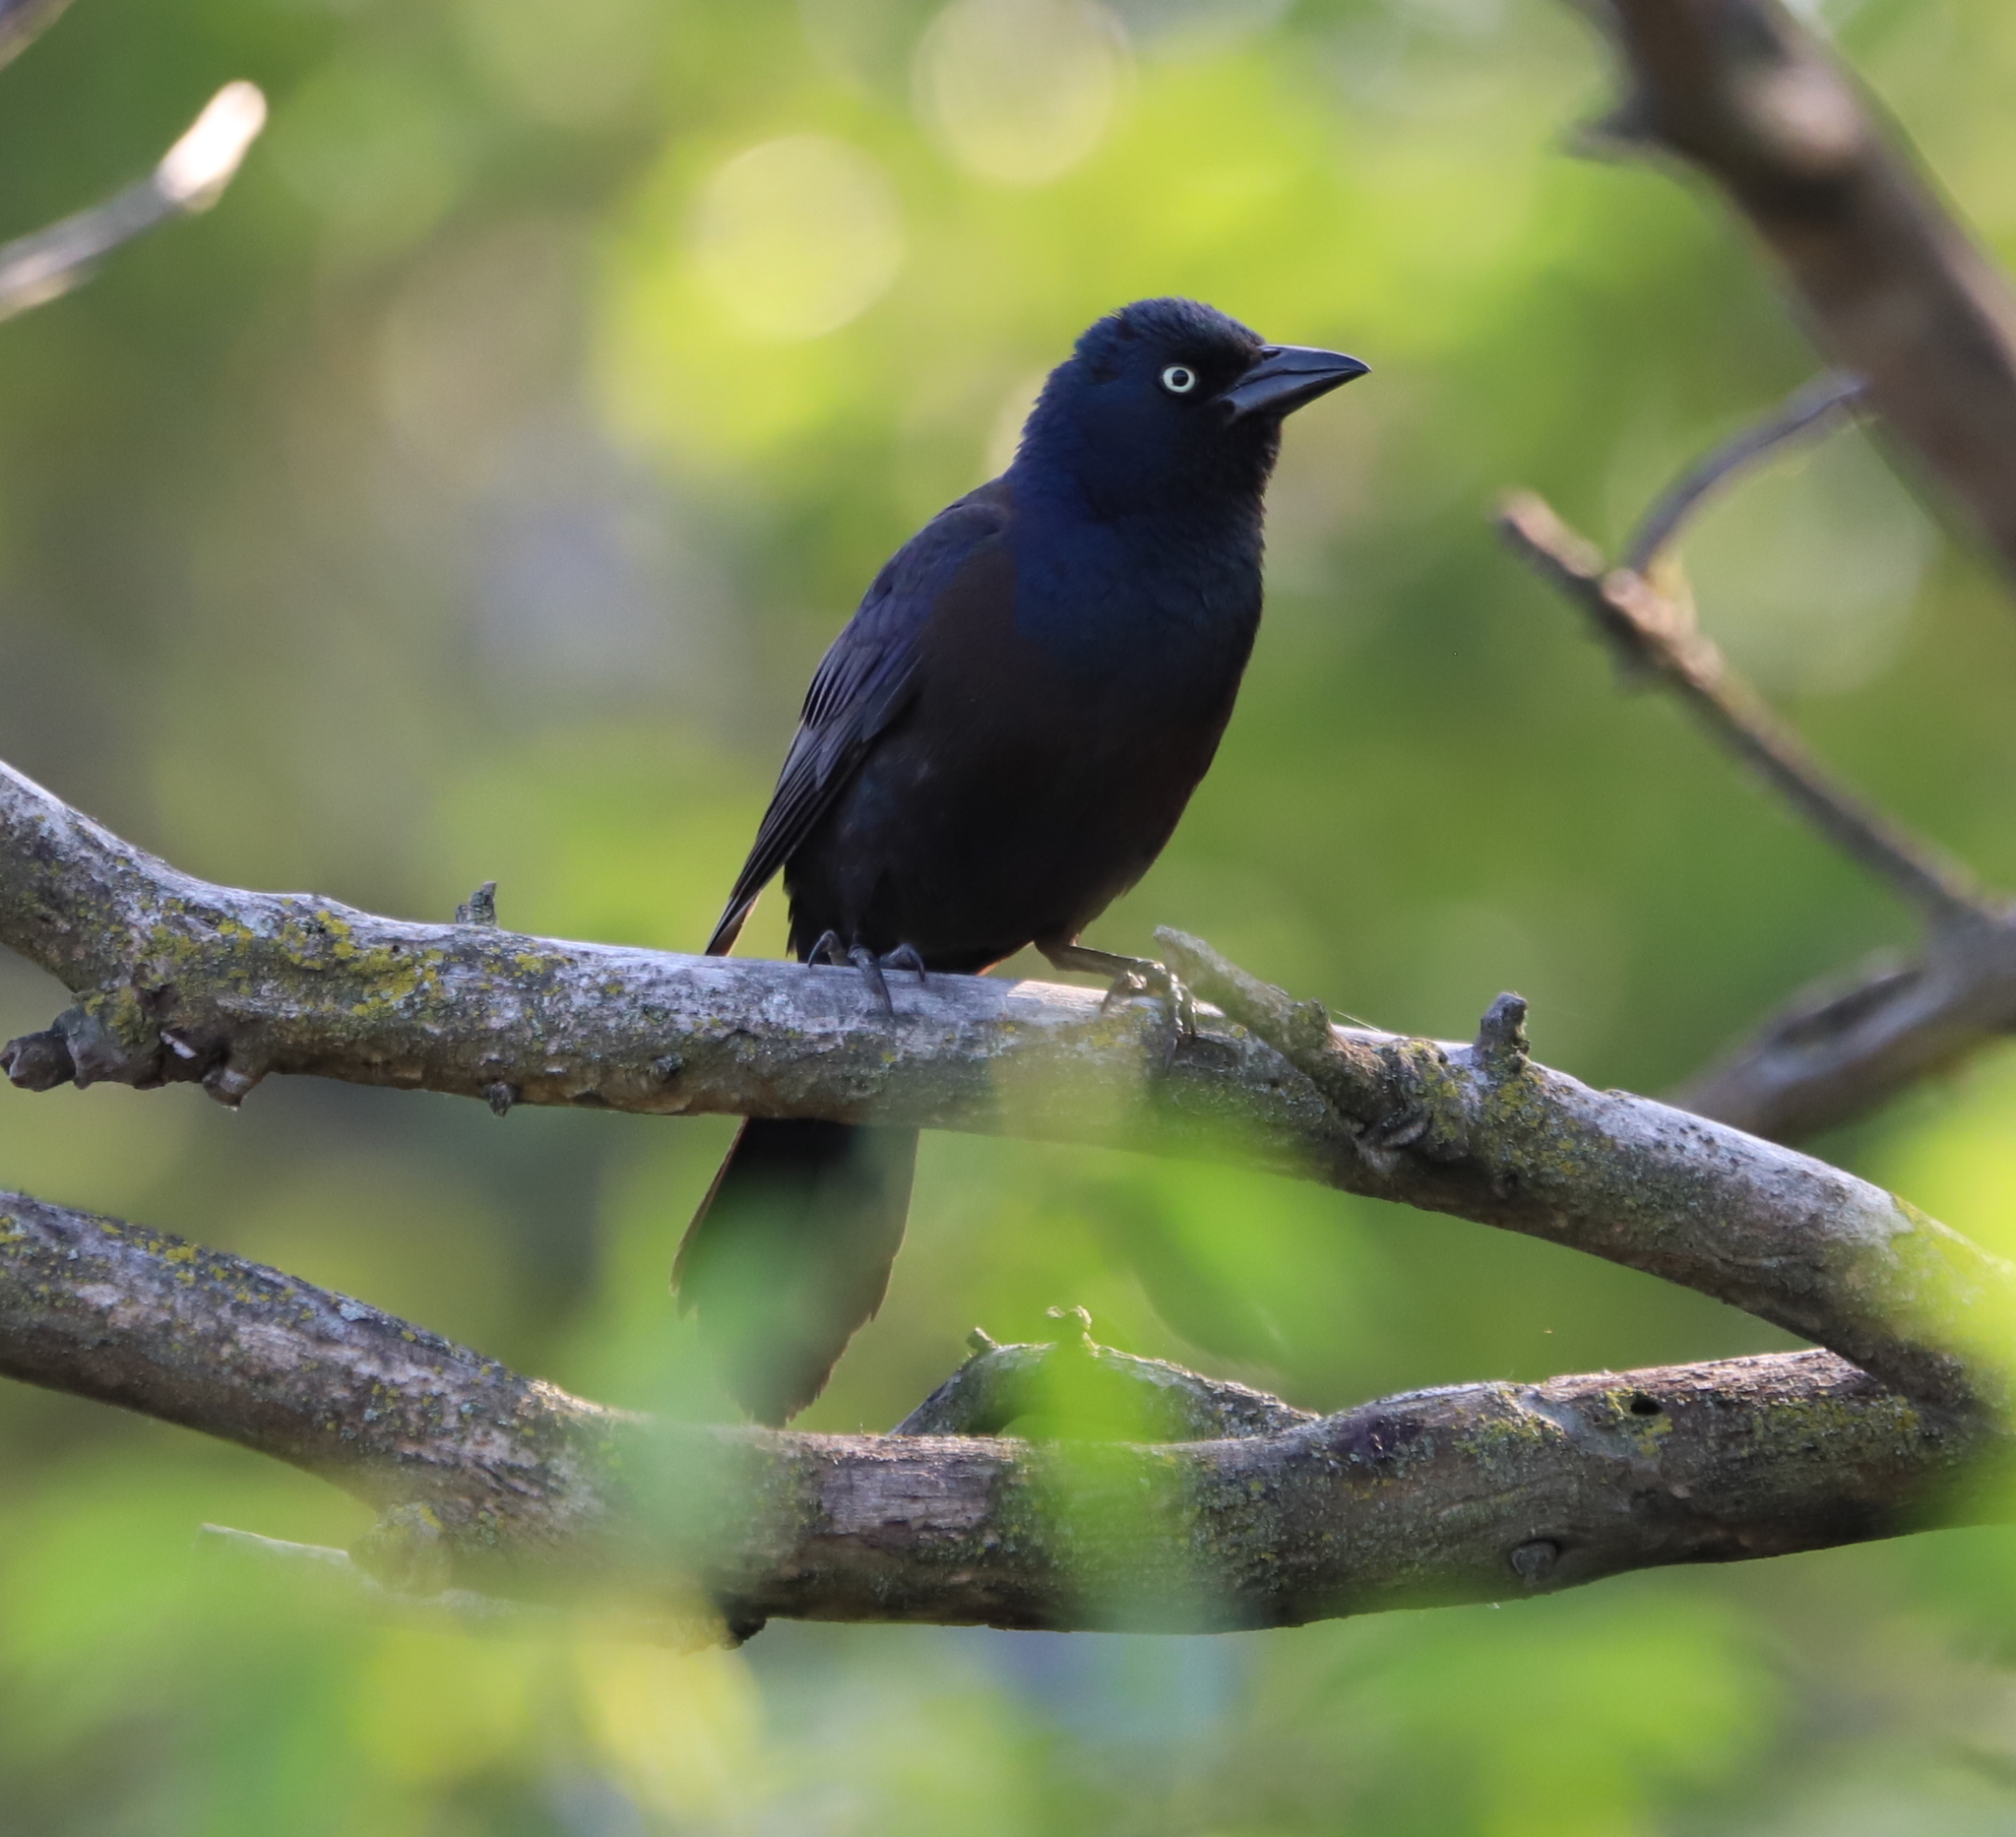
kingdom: Animalia
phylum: Chordata
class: Aves
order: Passeriformes
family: Icteridae
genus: Quiscalus
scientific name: Quiscalus quiscula
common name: Common grackle
